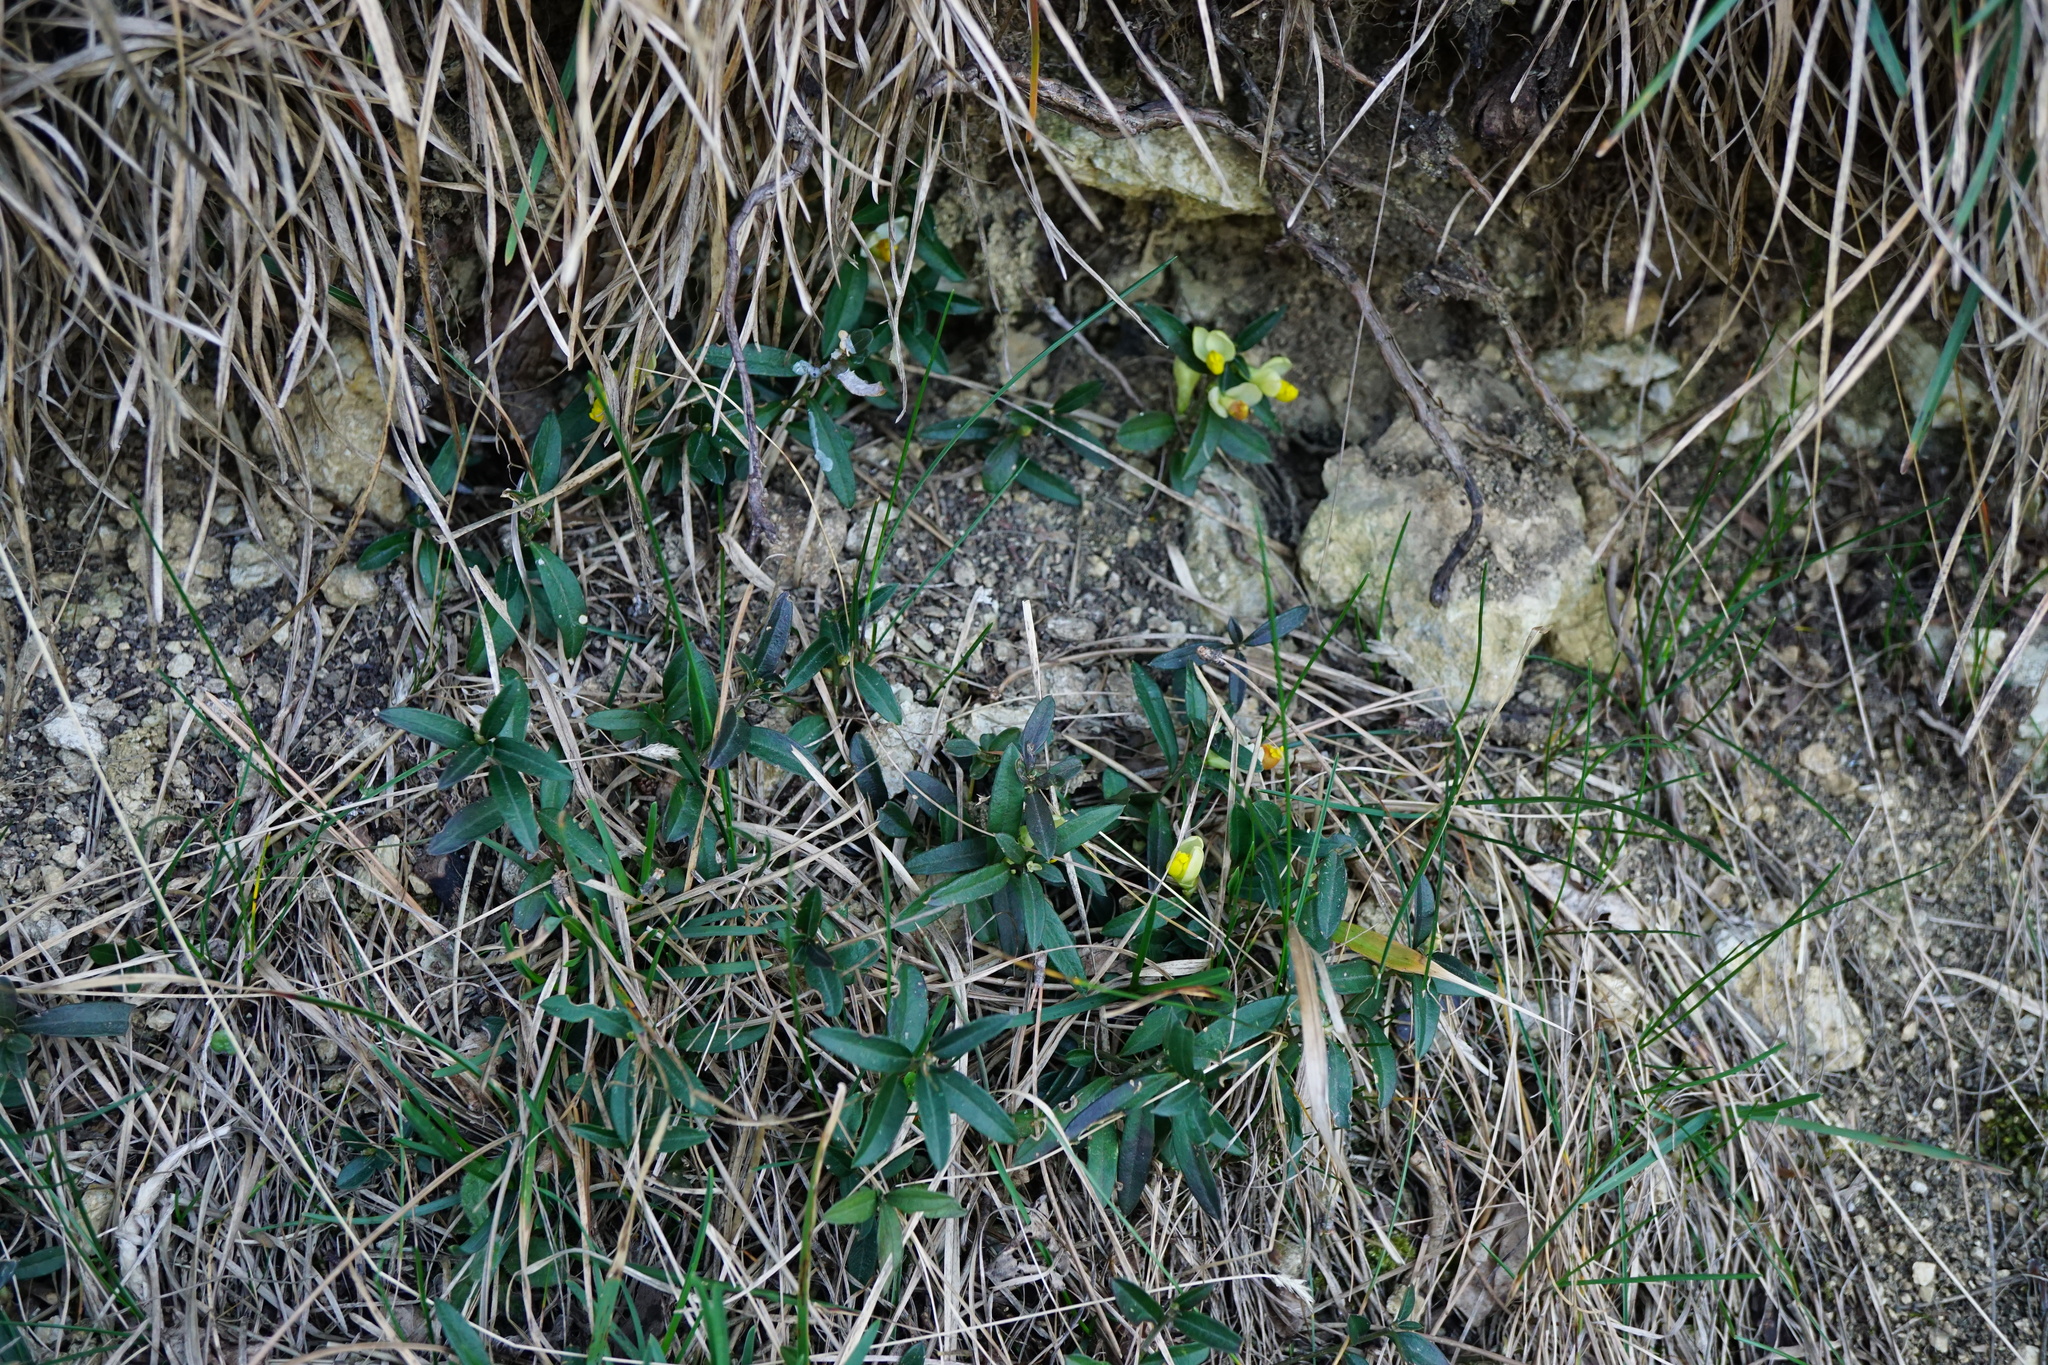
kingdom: Plantae
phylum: Tracheophyta
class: Magnoliopsida
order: Fabales
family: Polygalaceae
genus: Polygaloides
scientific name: Polygaloides chamaebuxus
